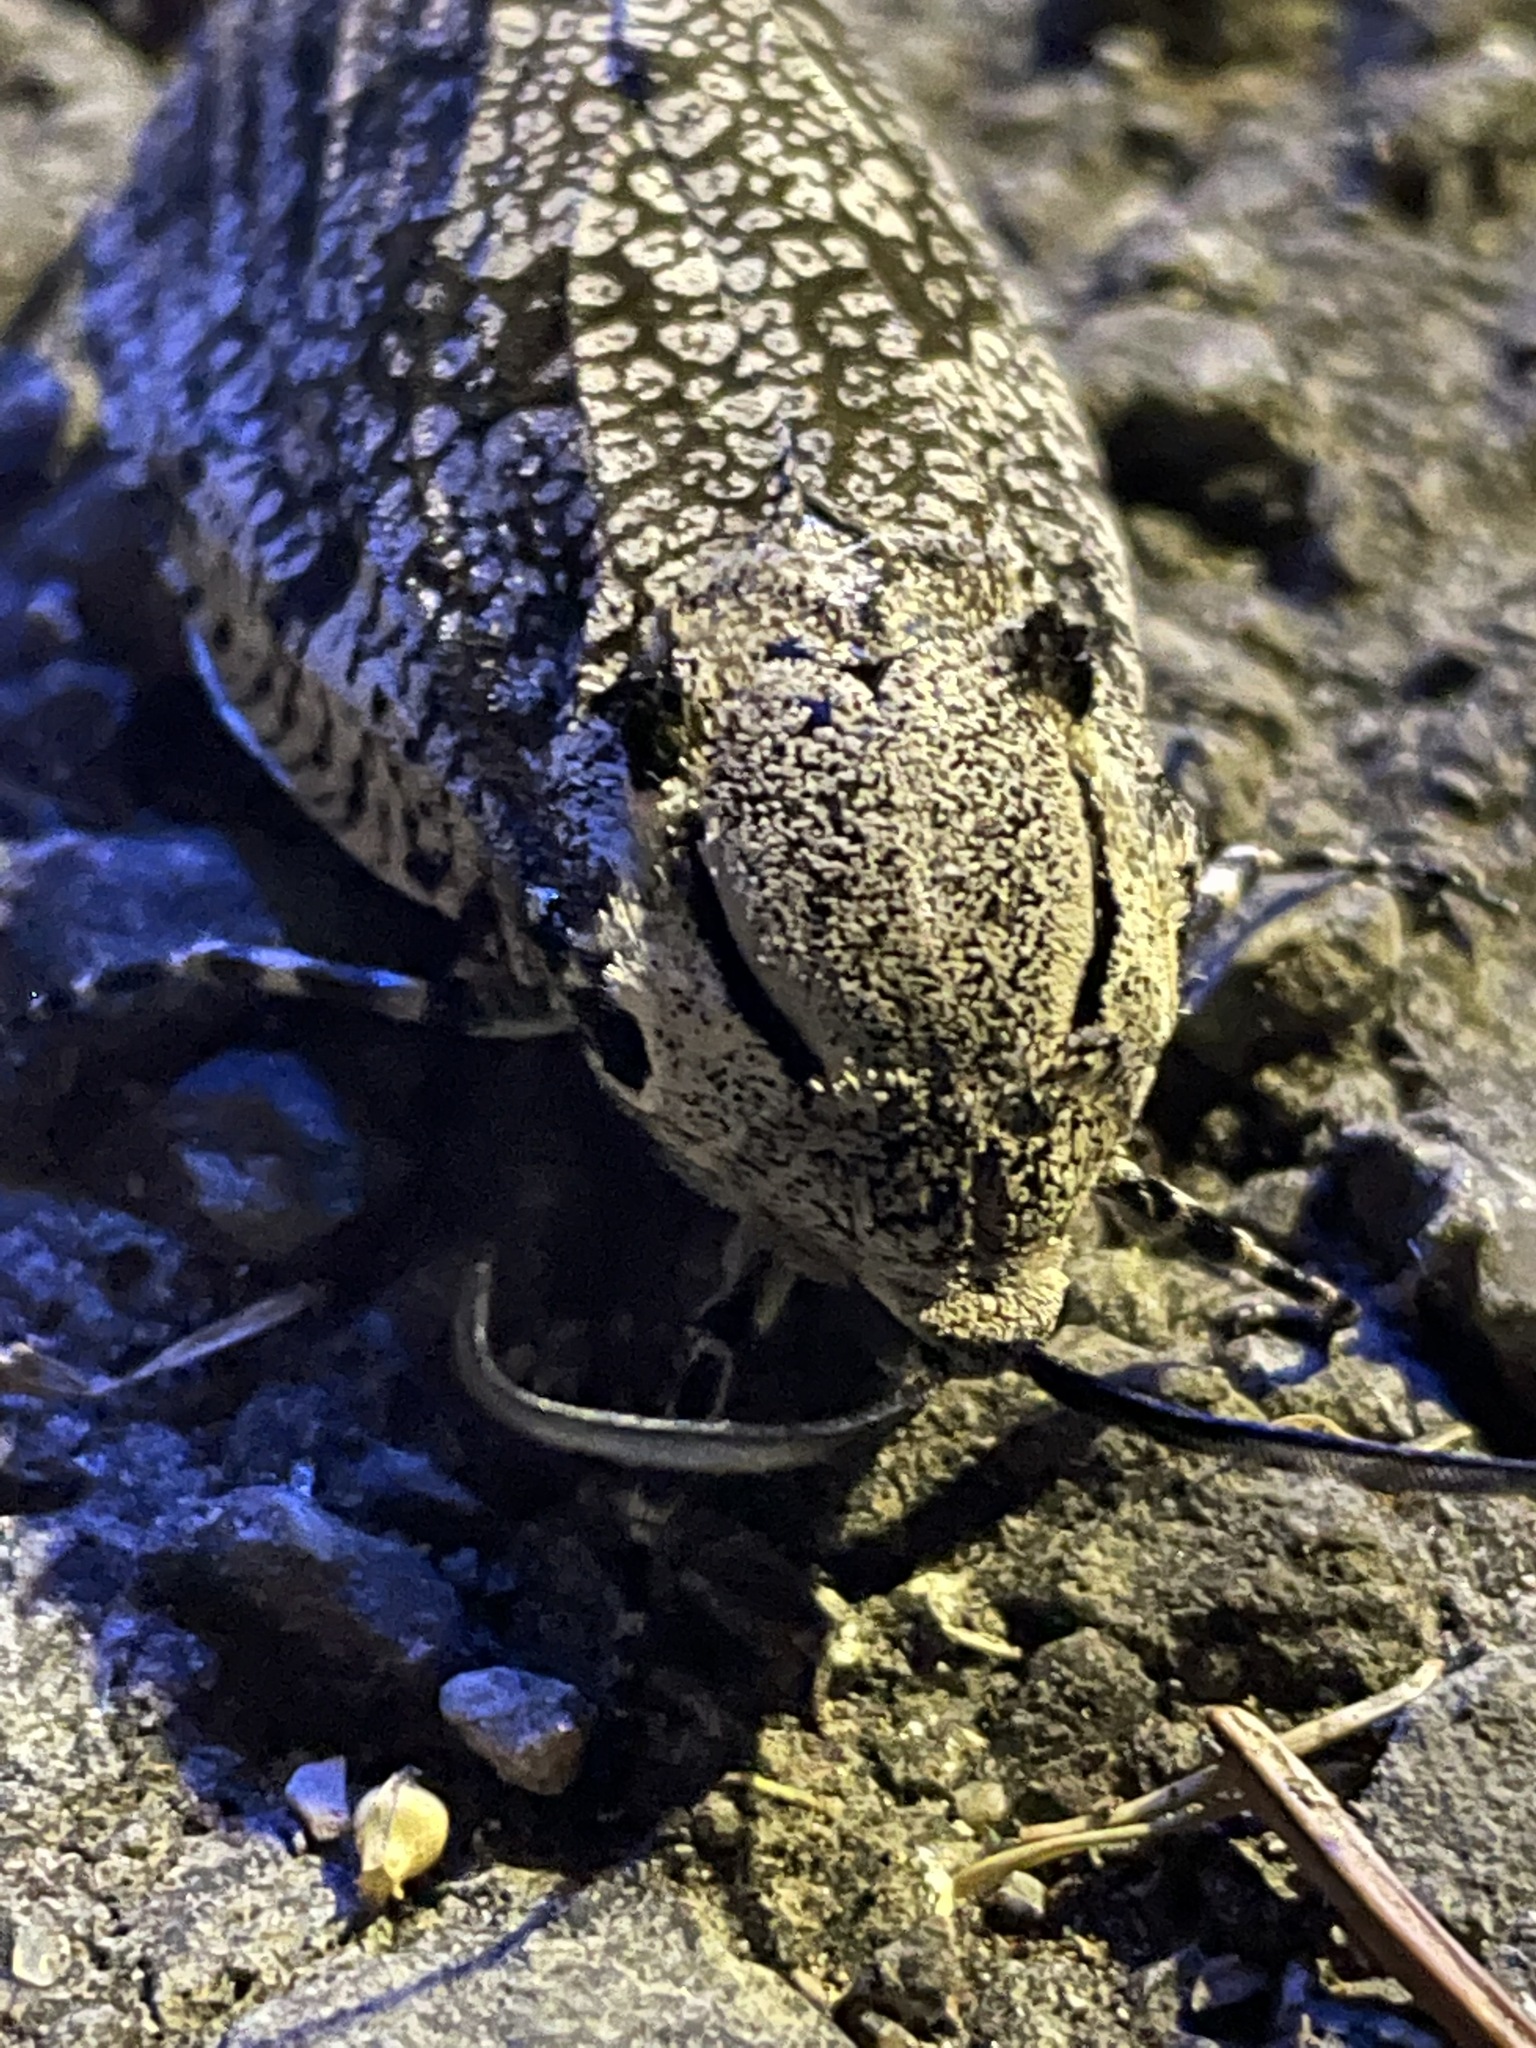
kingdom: Animalia
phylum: Arthropoda
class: Insecta
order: Lepidoptera
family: Cossidae
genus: Prionoxystus
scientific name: Prionoxystus robiniae
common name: Carpenterworm
